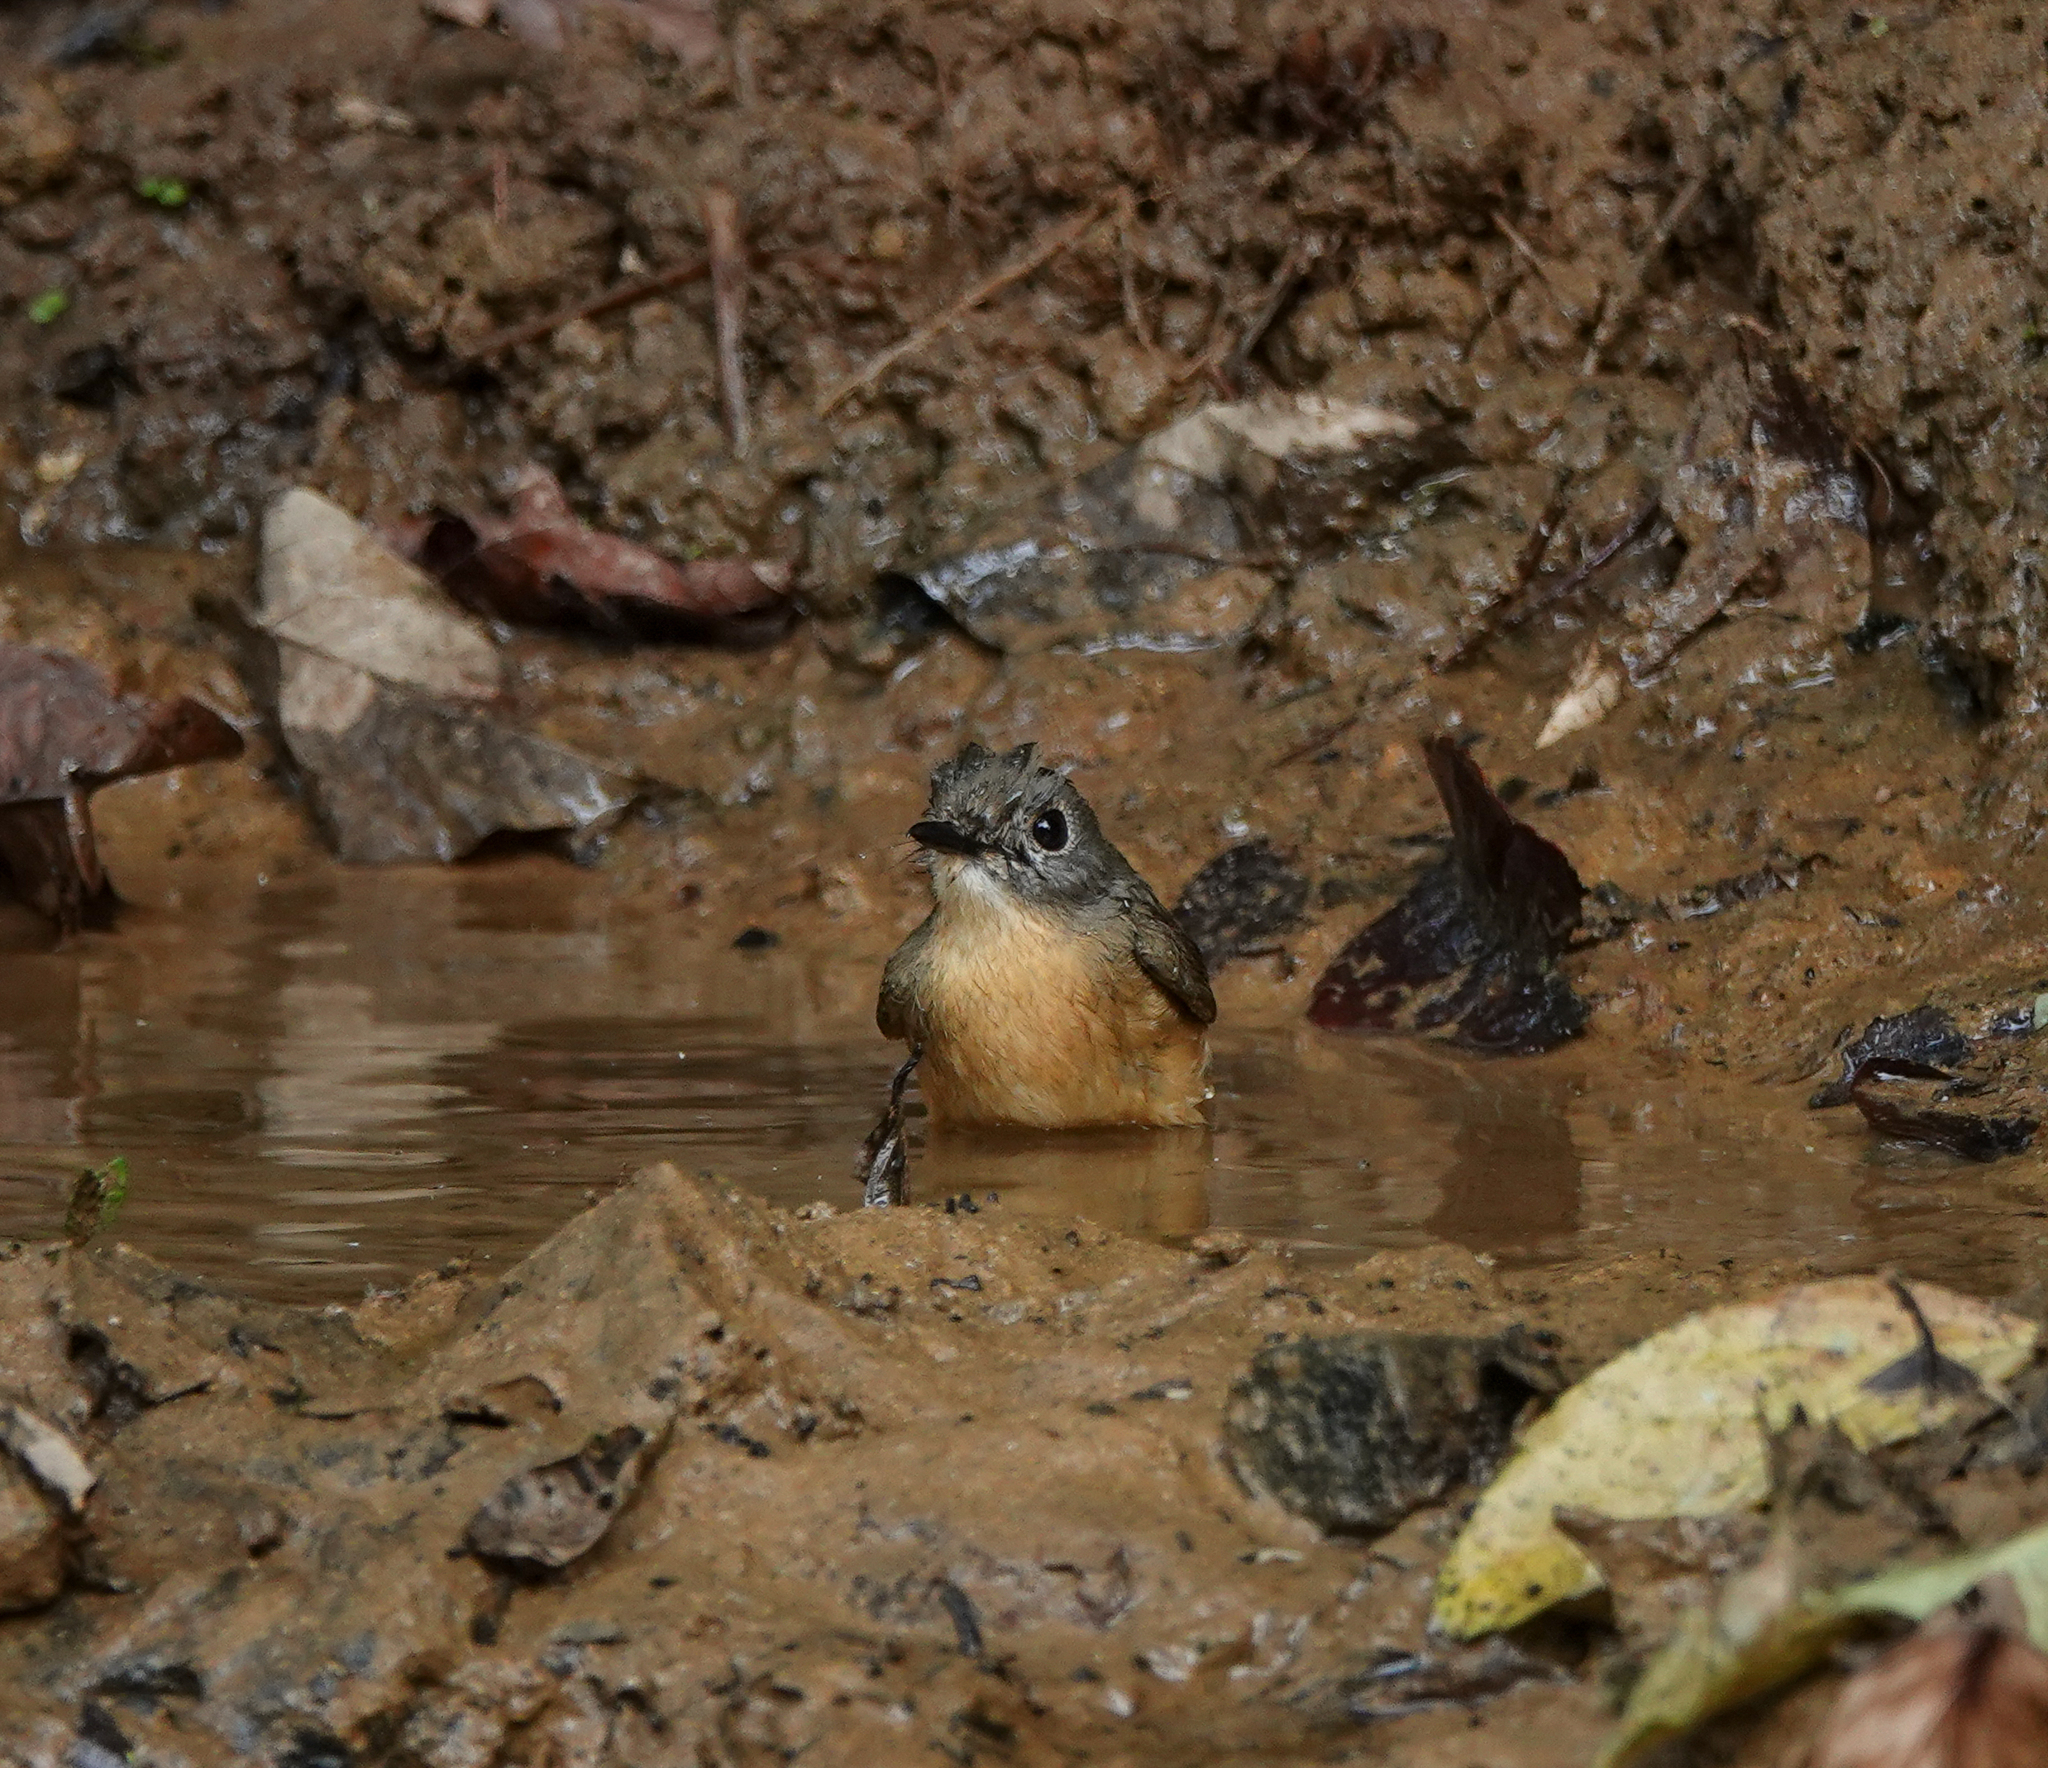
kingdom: Animalia
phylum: Chordata
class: Aves
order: Passeriformes
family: Muscicapidae
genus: Cyornis
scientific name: Cyornis poliogenys
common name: Pale-chinned blue flycatcher
